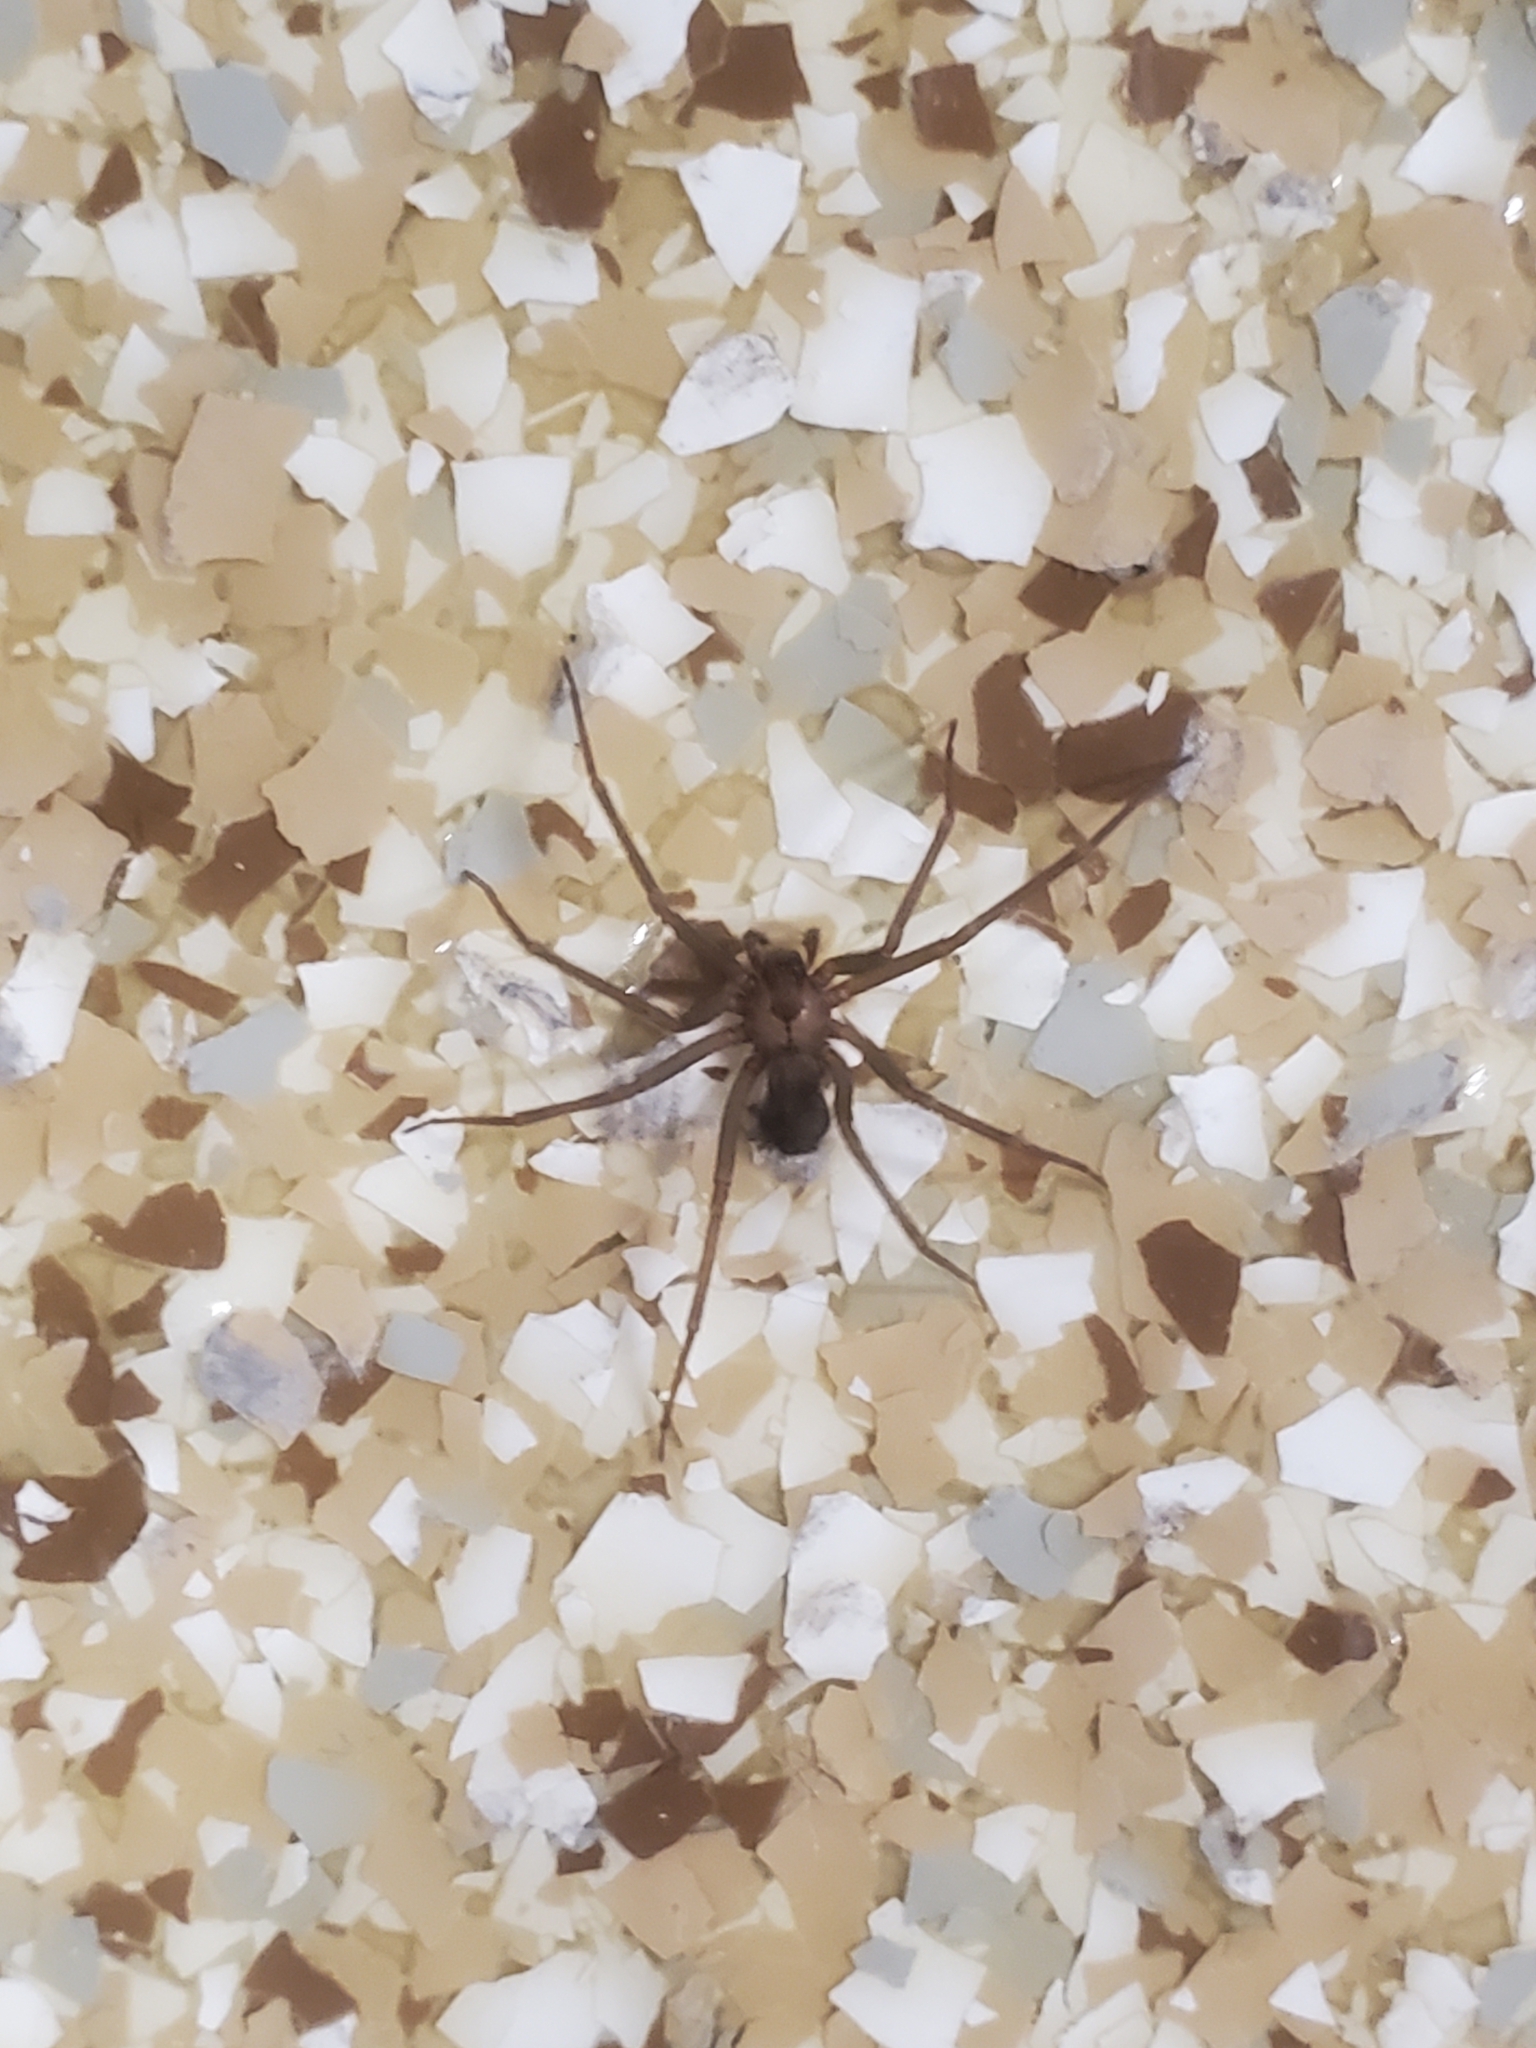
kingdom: Animalia
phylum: Arthropoda
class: Arachnida
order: Araneae
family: Sicariidae
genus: Loxosceles
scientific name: Loxosceles reclusa
